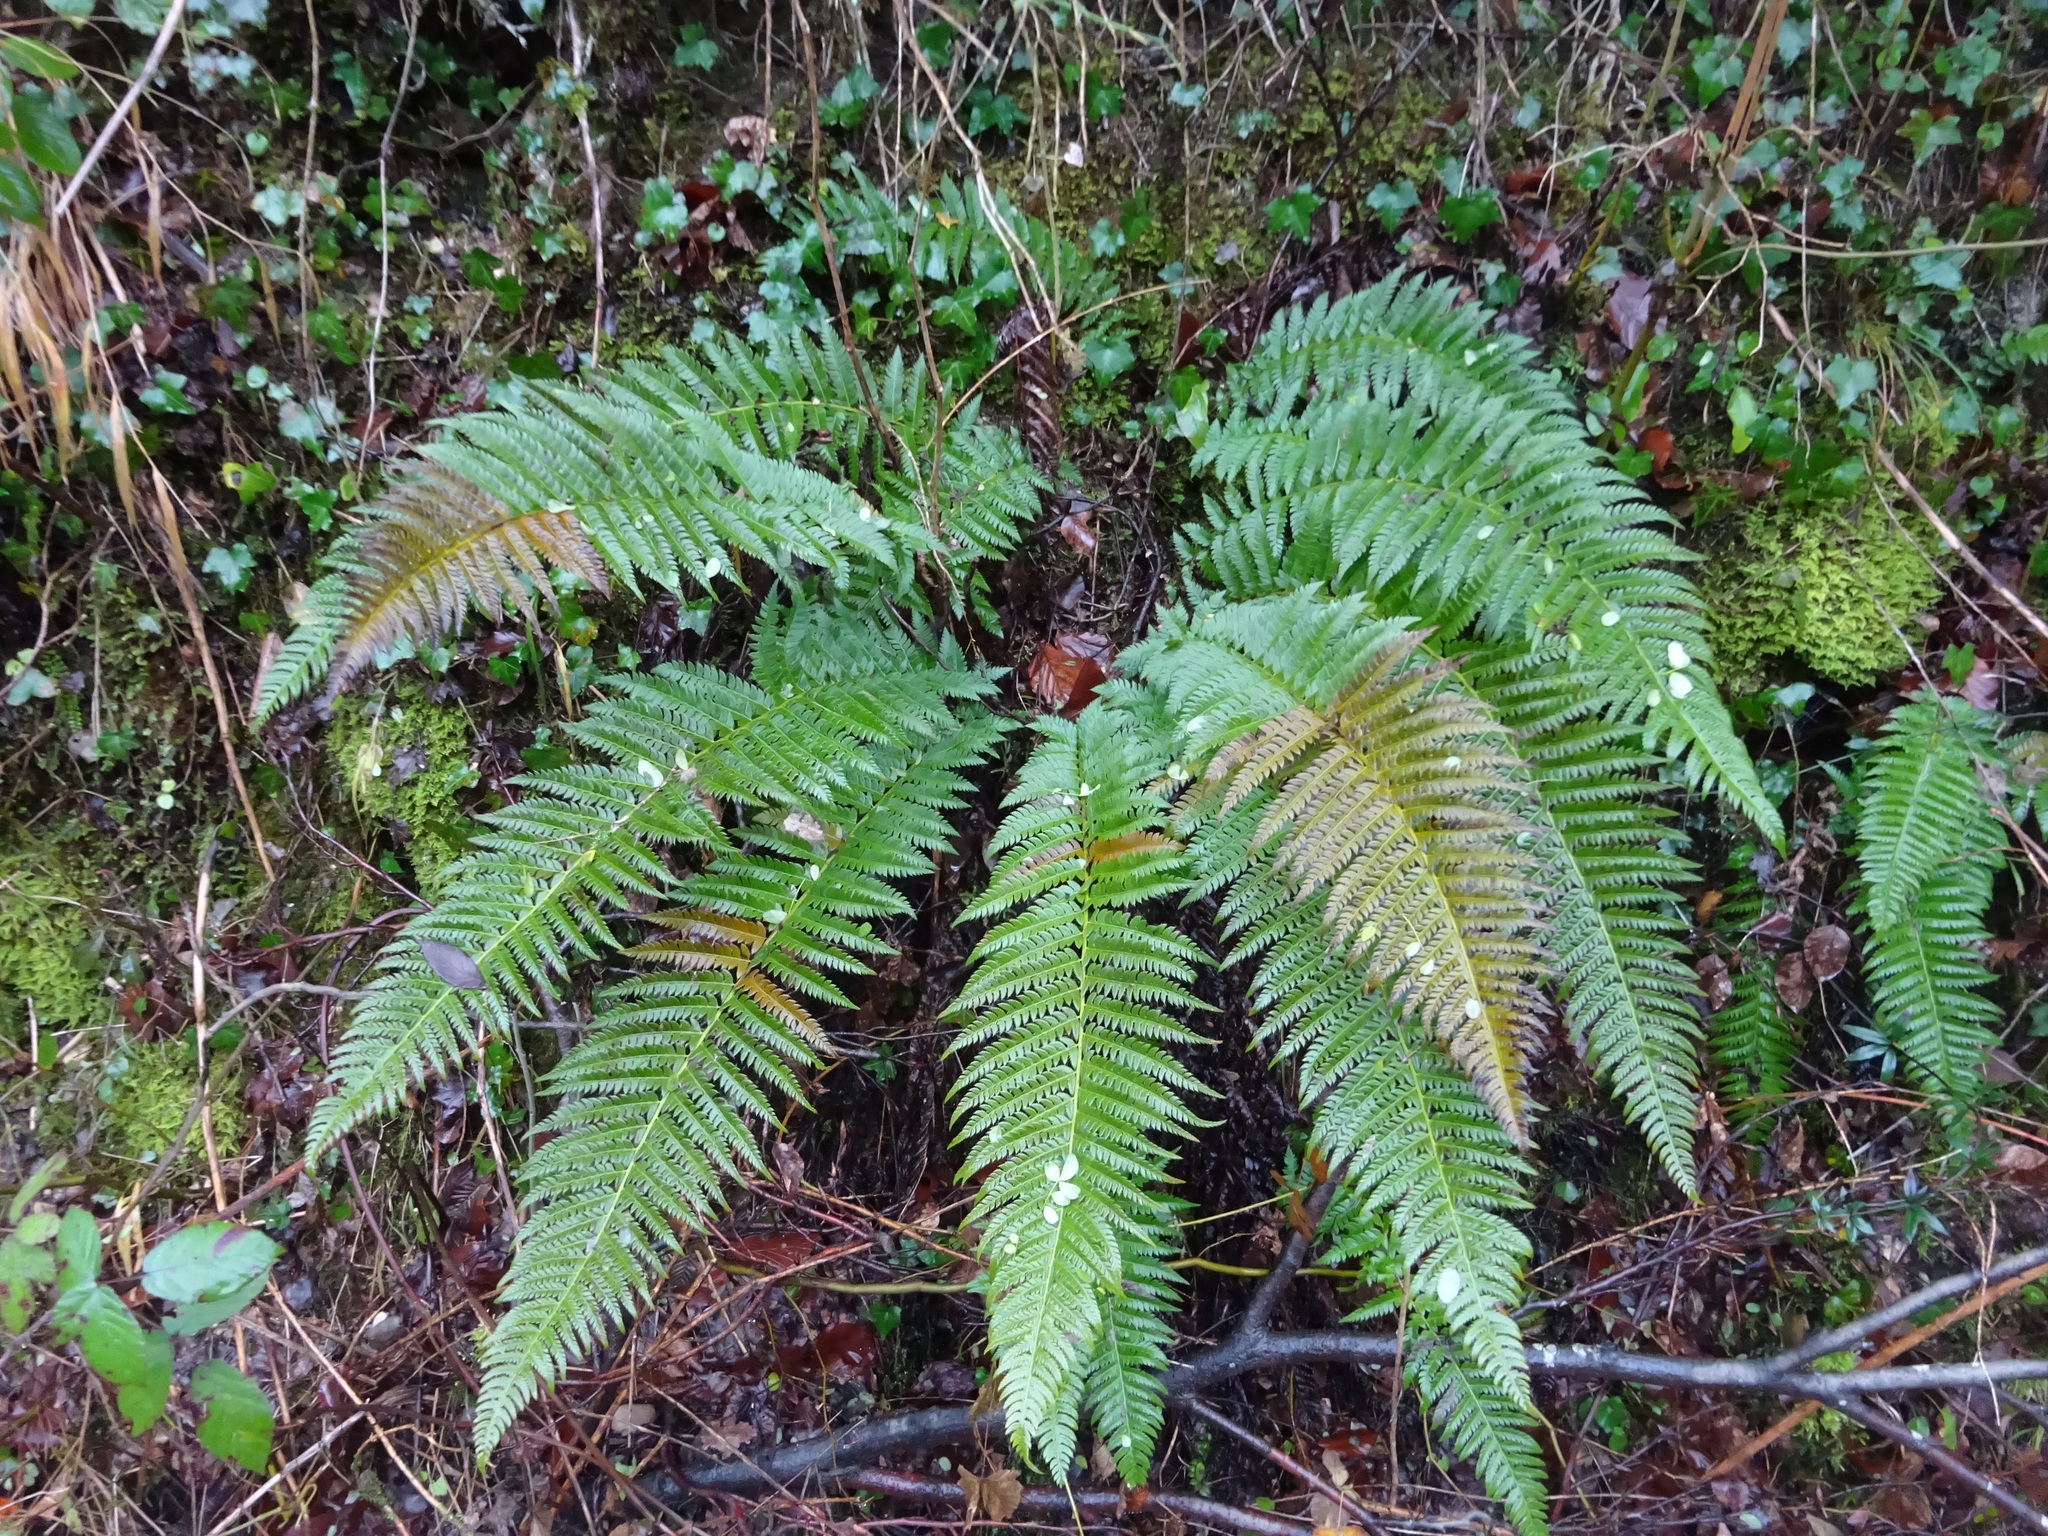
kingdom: Plantae
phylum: Tracheophyta
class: Polypodiopsida
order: Polypodiales
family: Dryopteridaceae
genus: Polystichum
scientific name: Polystichum aculeatum
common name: Hard shield-fern
